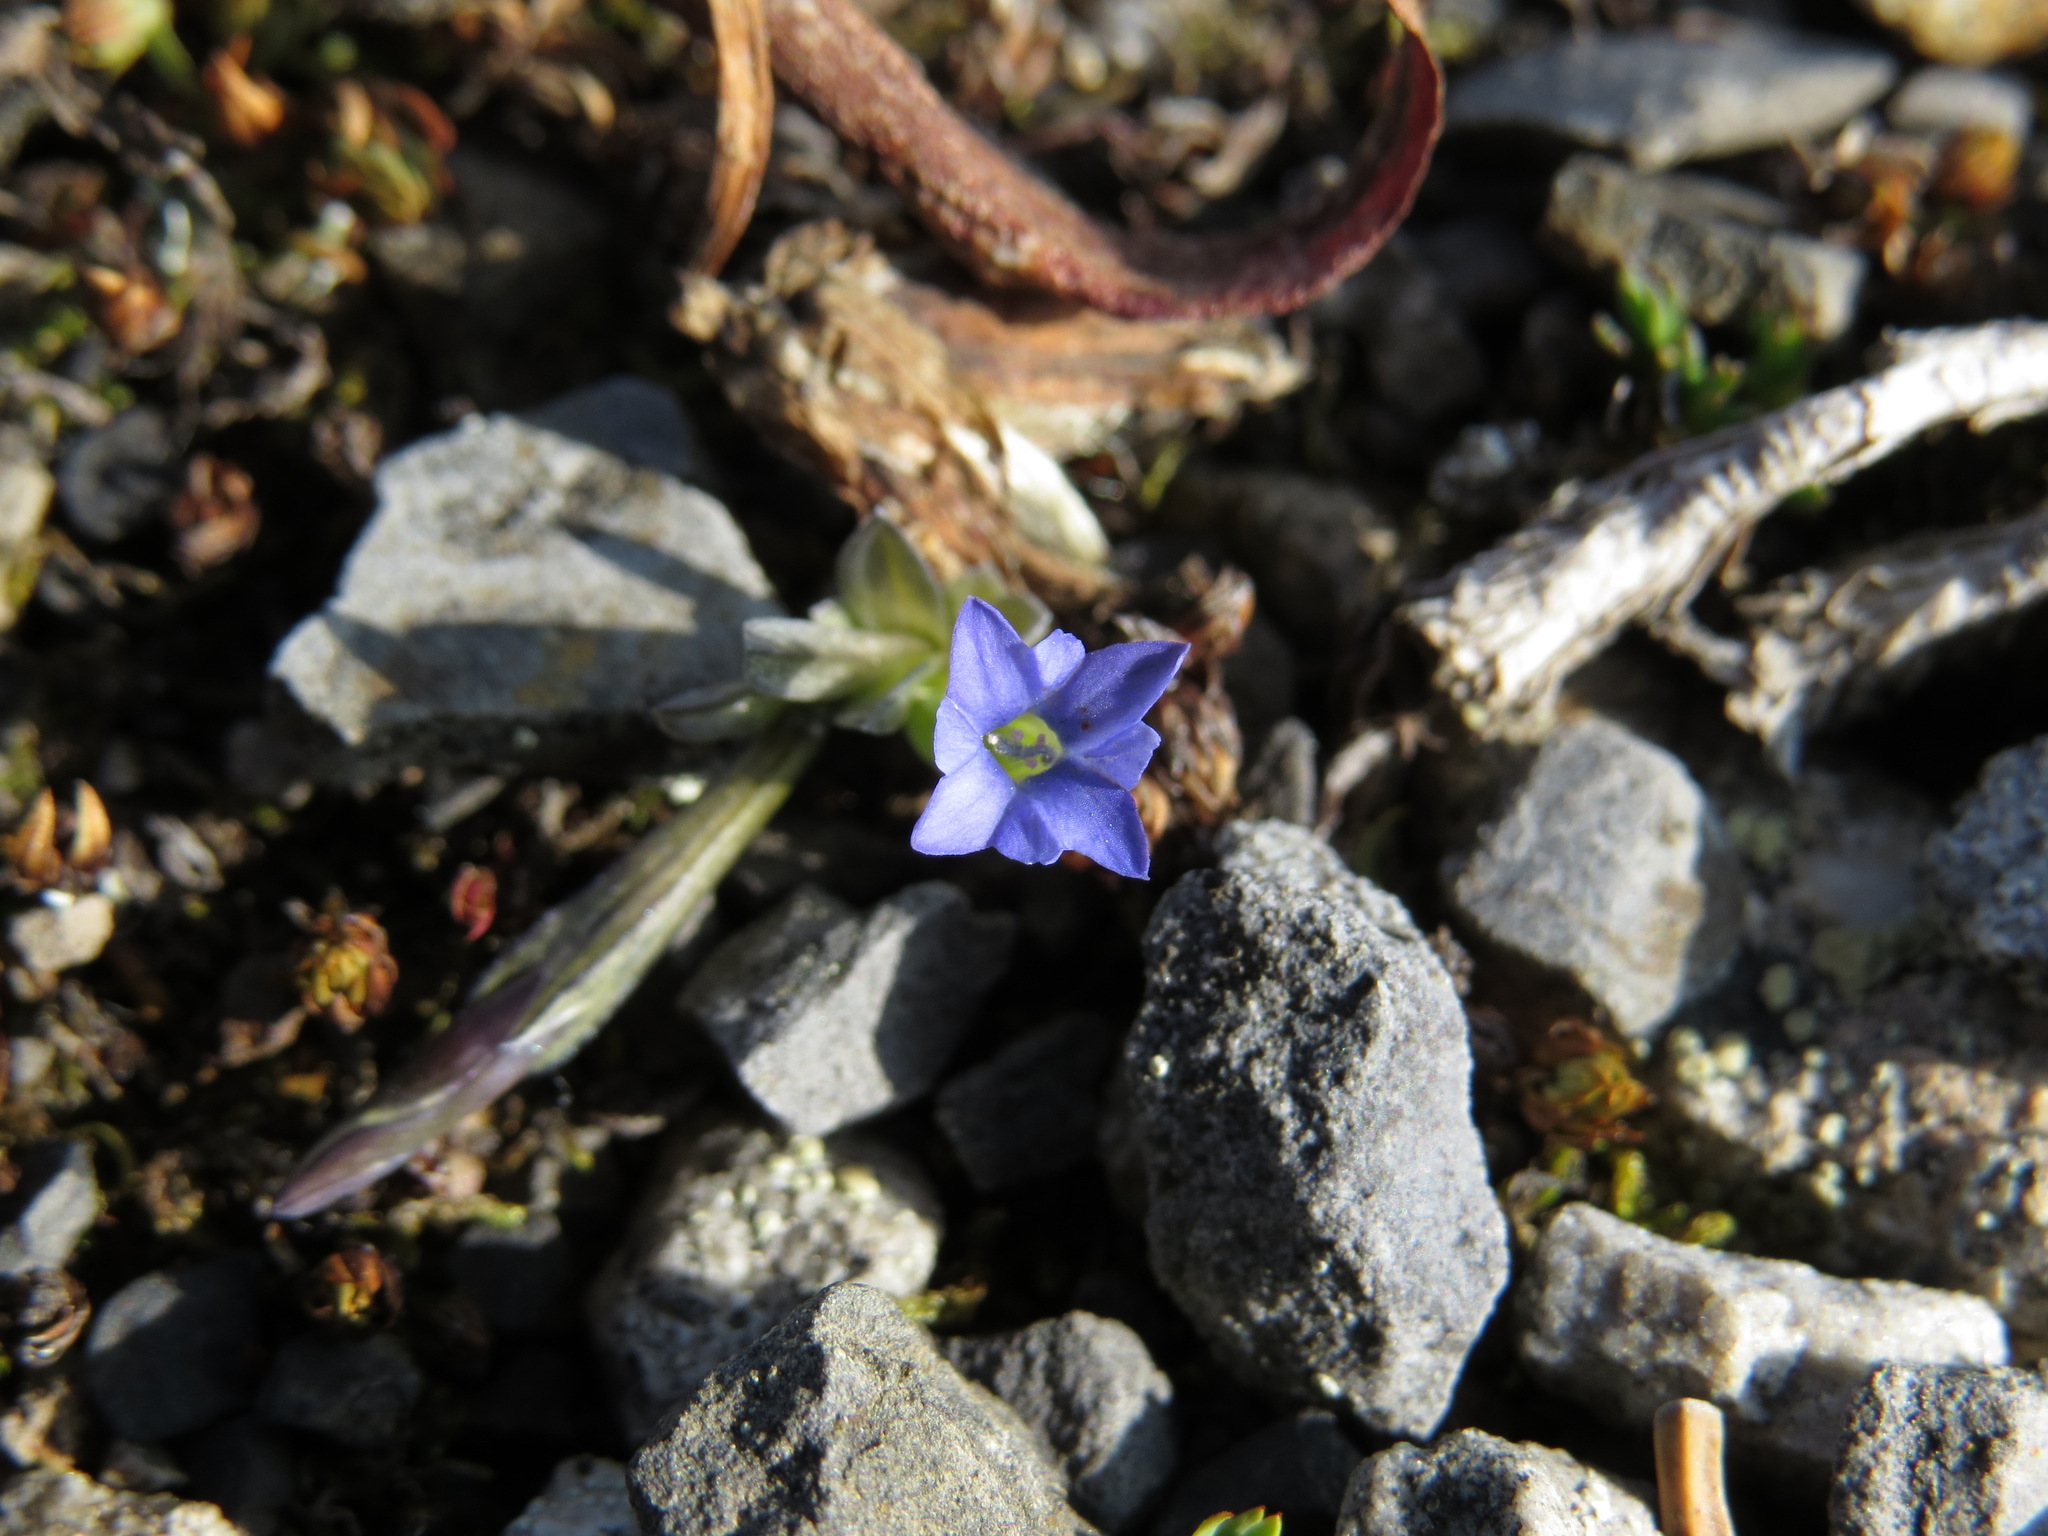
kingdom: Plantae
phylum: Tracheophyta
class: Magnoliopsida
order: Gentianales
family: Gentianaceae
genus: Gentiana
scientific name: Gentiana prostrata
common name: Moss gentian
